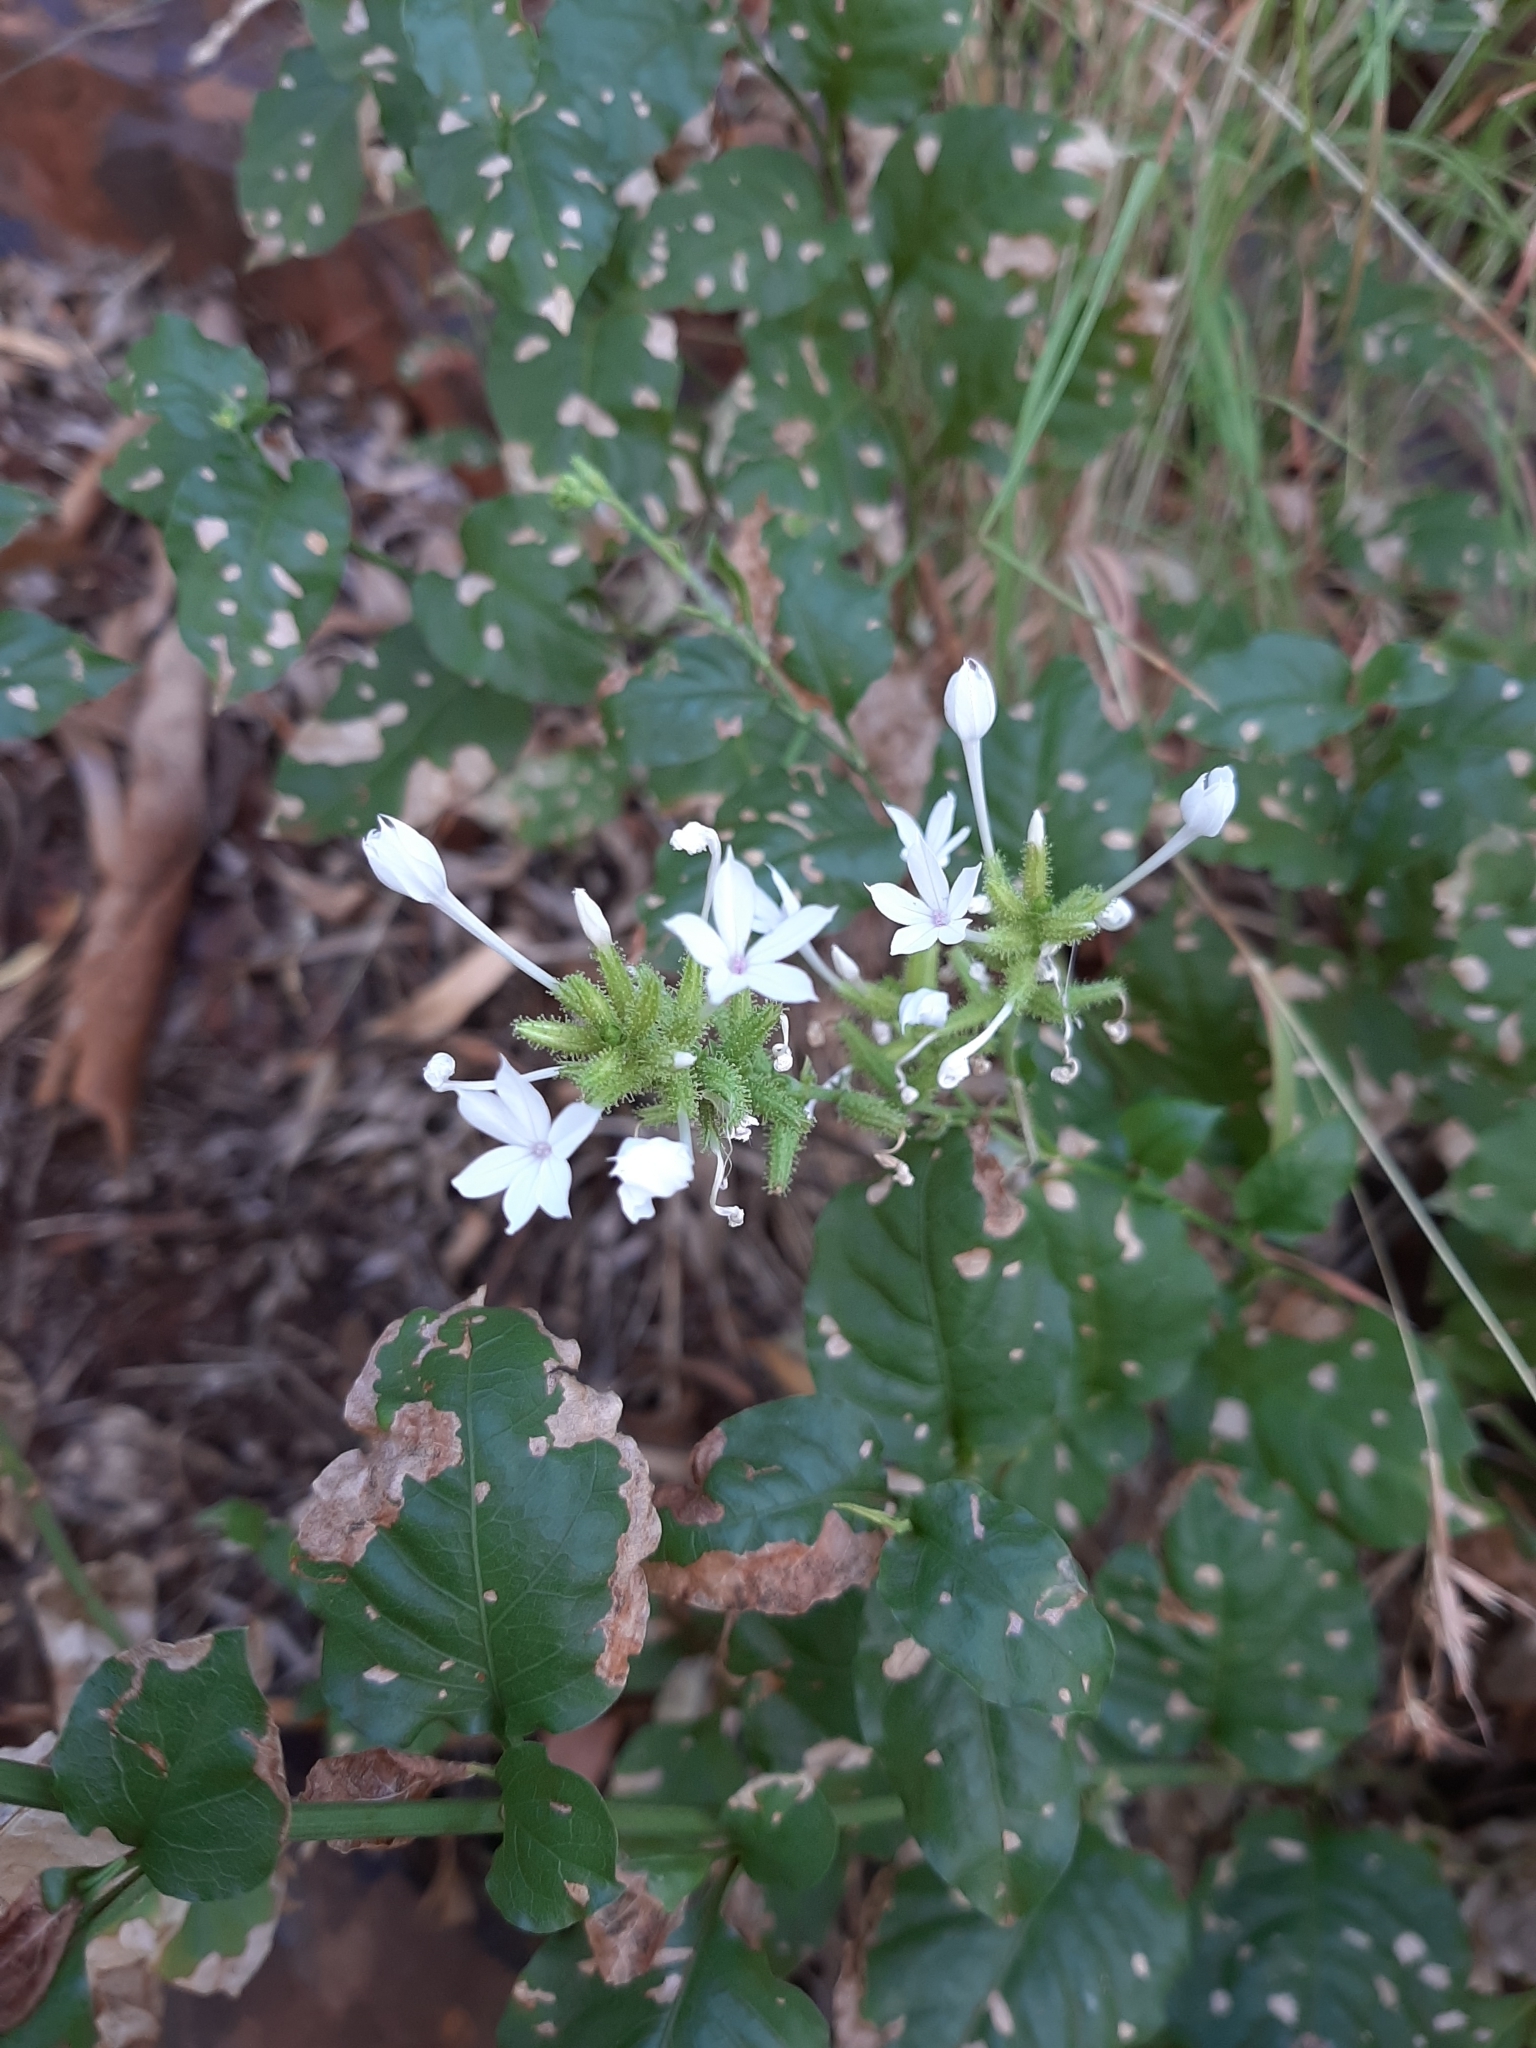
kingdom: Plantae
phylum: Tracheophyta
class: Magnoliopsida
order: Caryophyllales
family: Plumbaginaceae
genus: Plumbago
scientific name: Plumbago zeylanica
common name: Doctorbush
